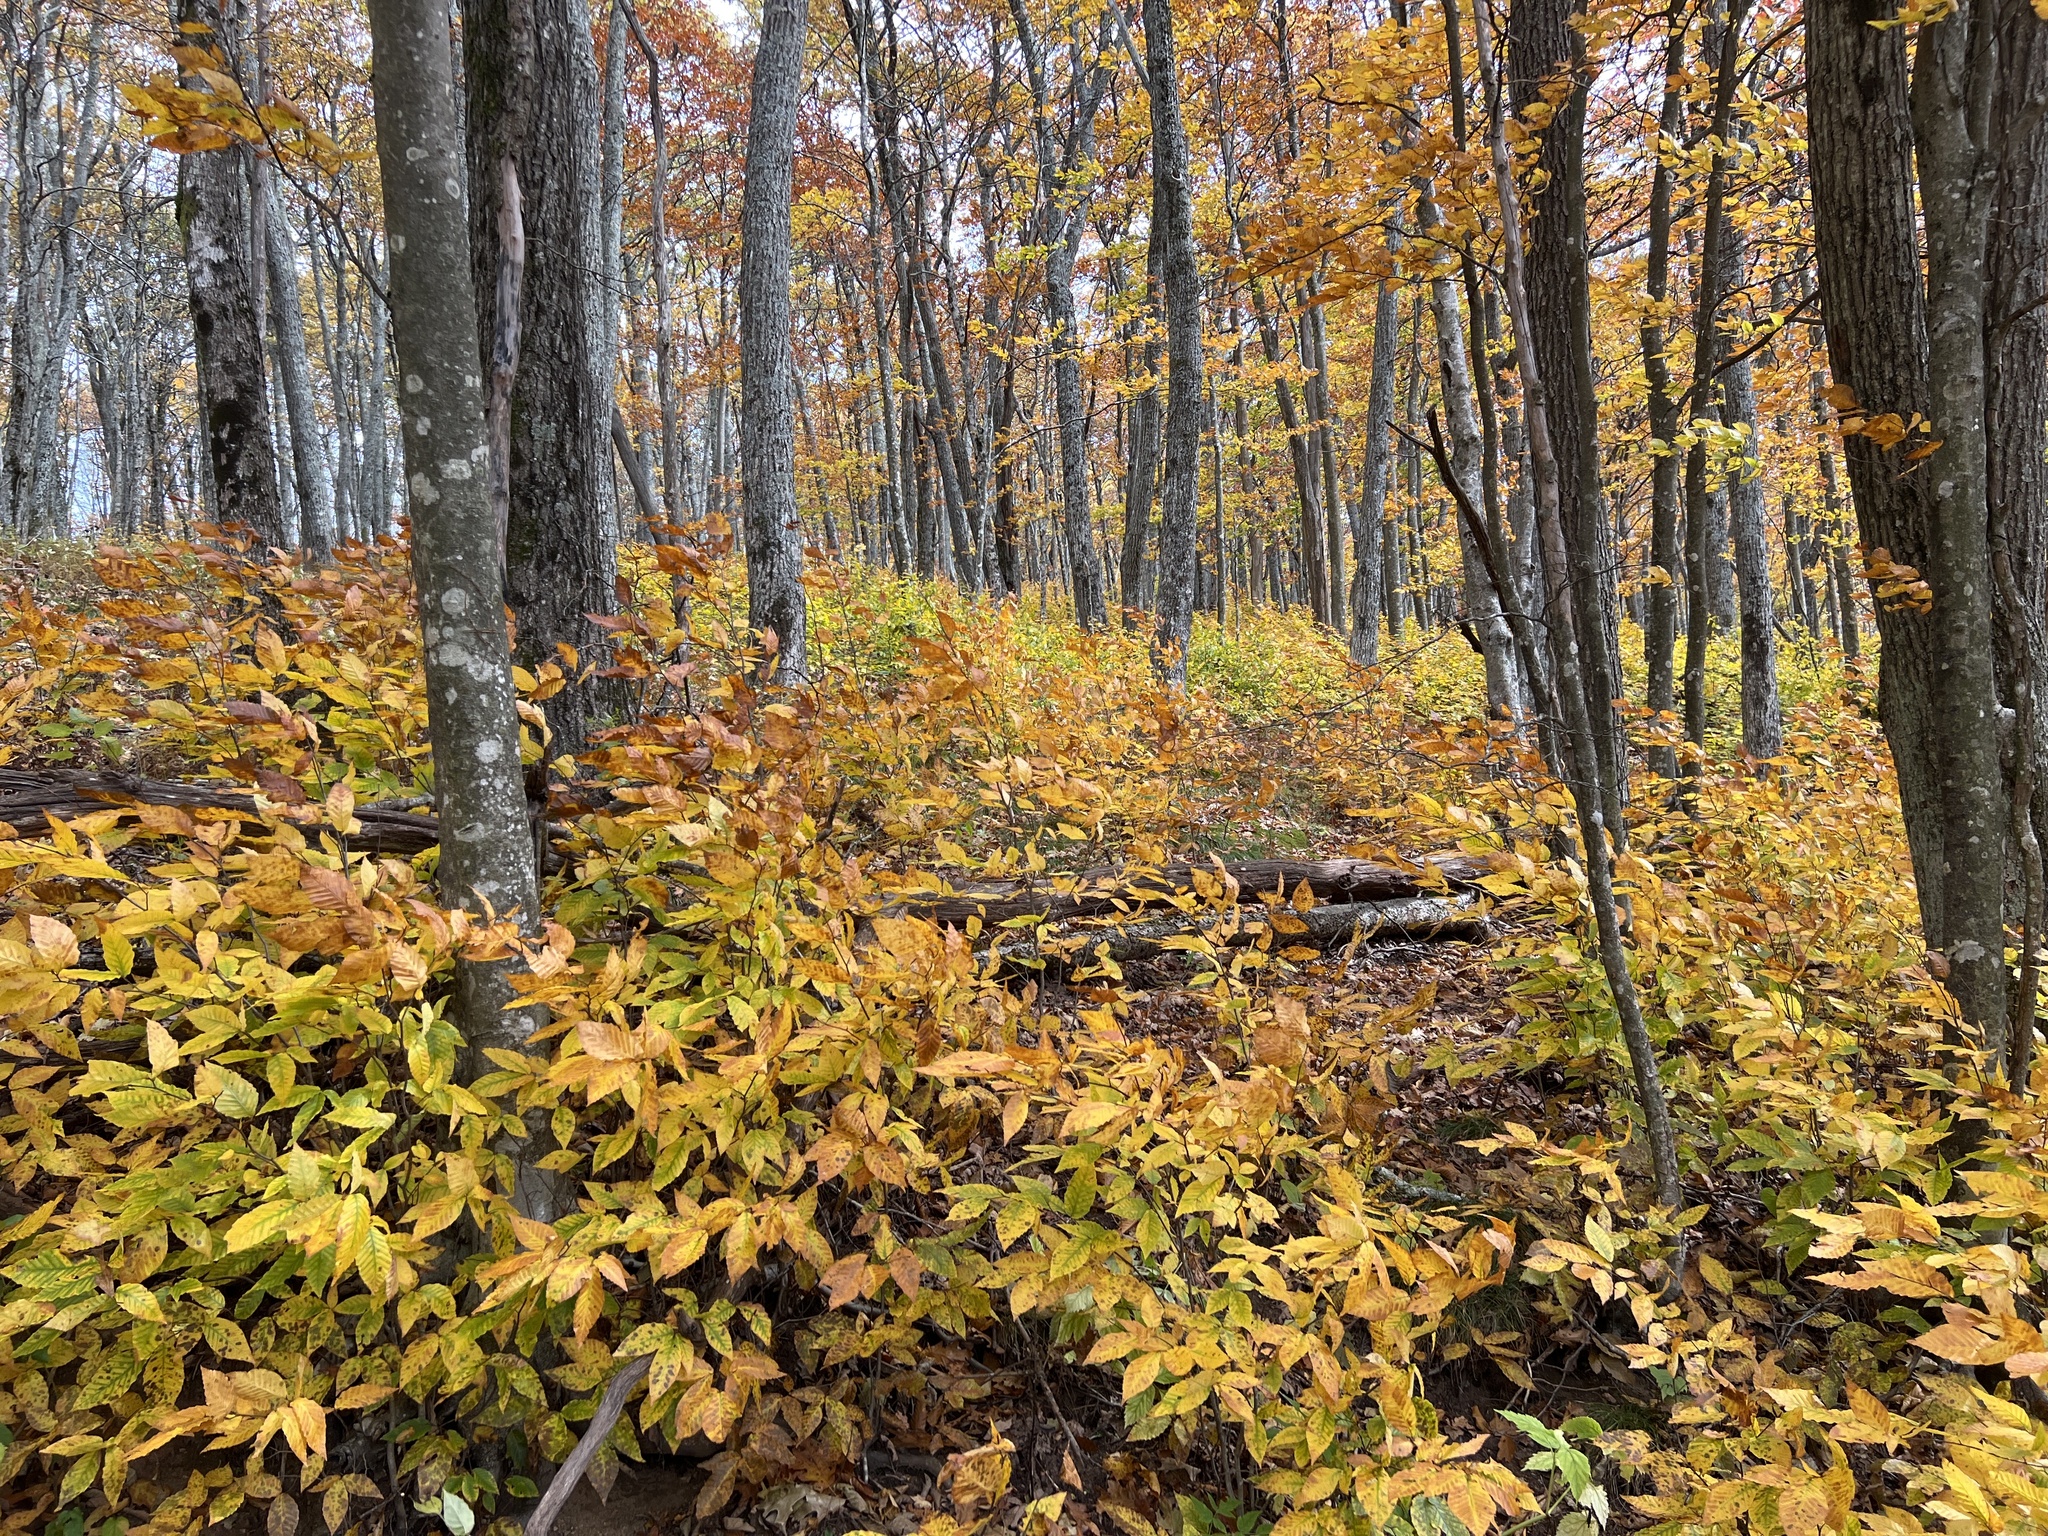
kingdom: Plantae
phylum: Tracheophyta
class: Magnoliopsida
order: Fagales
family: Fagaceae
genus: Fagus
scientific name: Fagus grandifolia
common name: American beech
